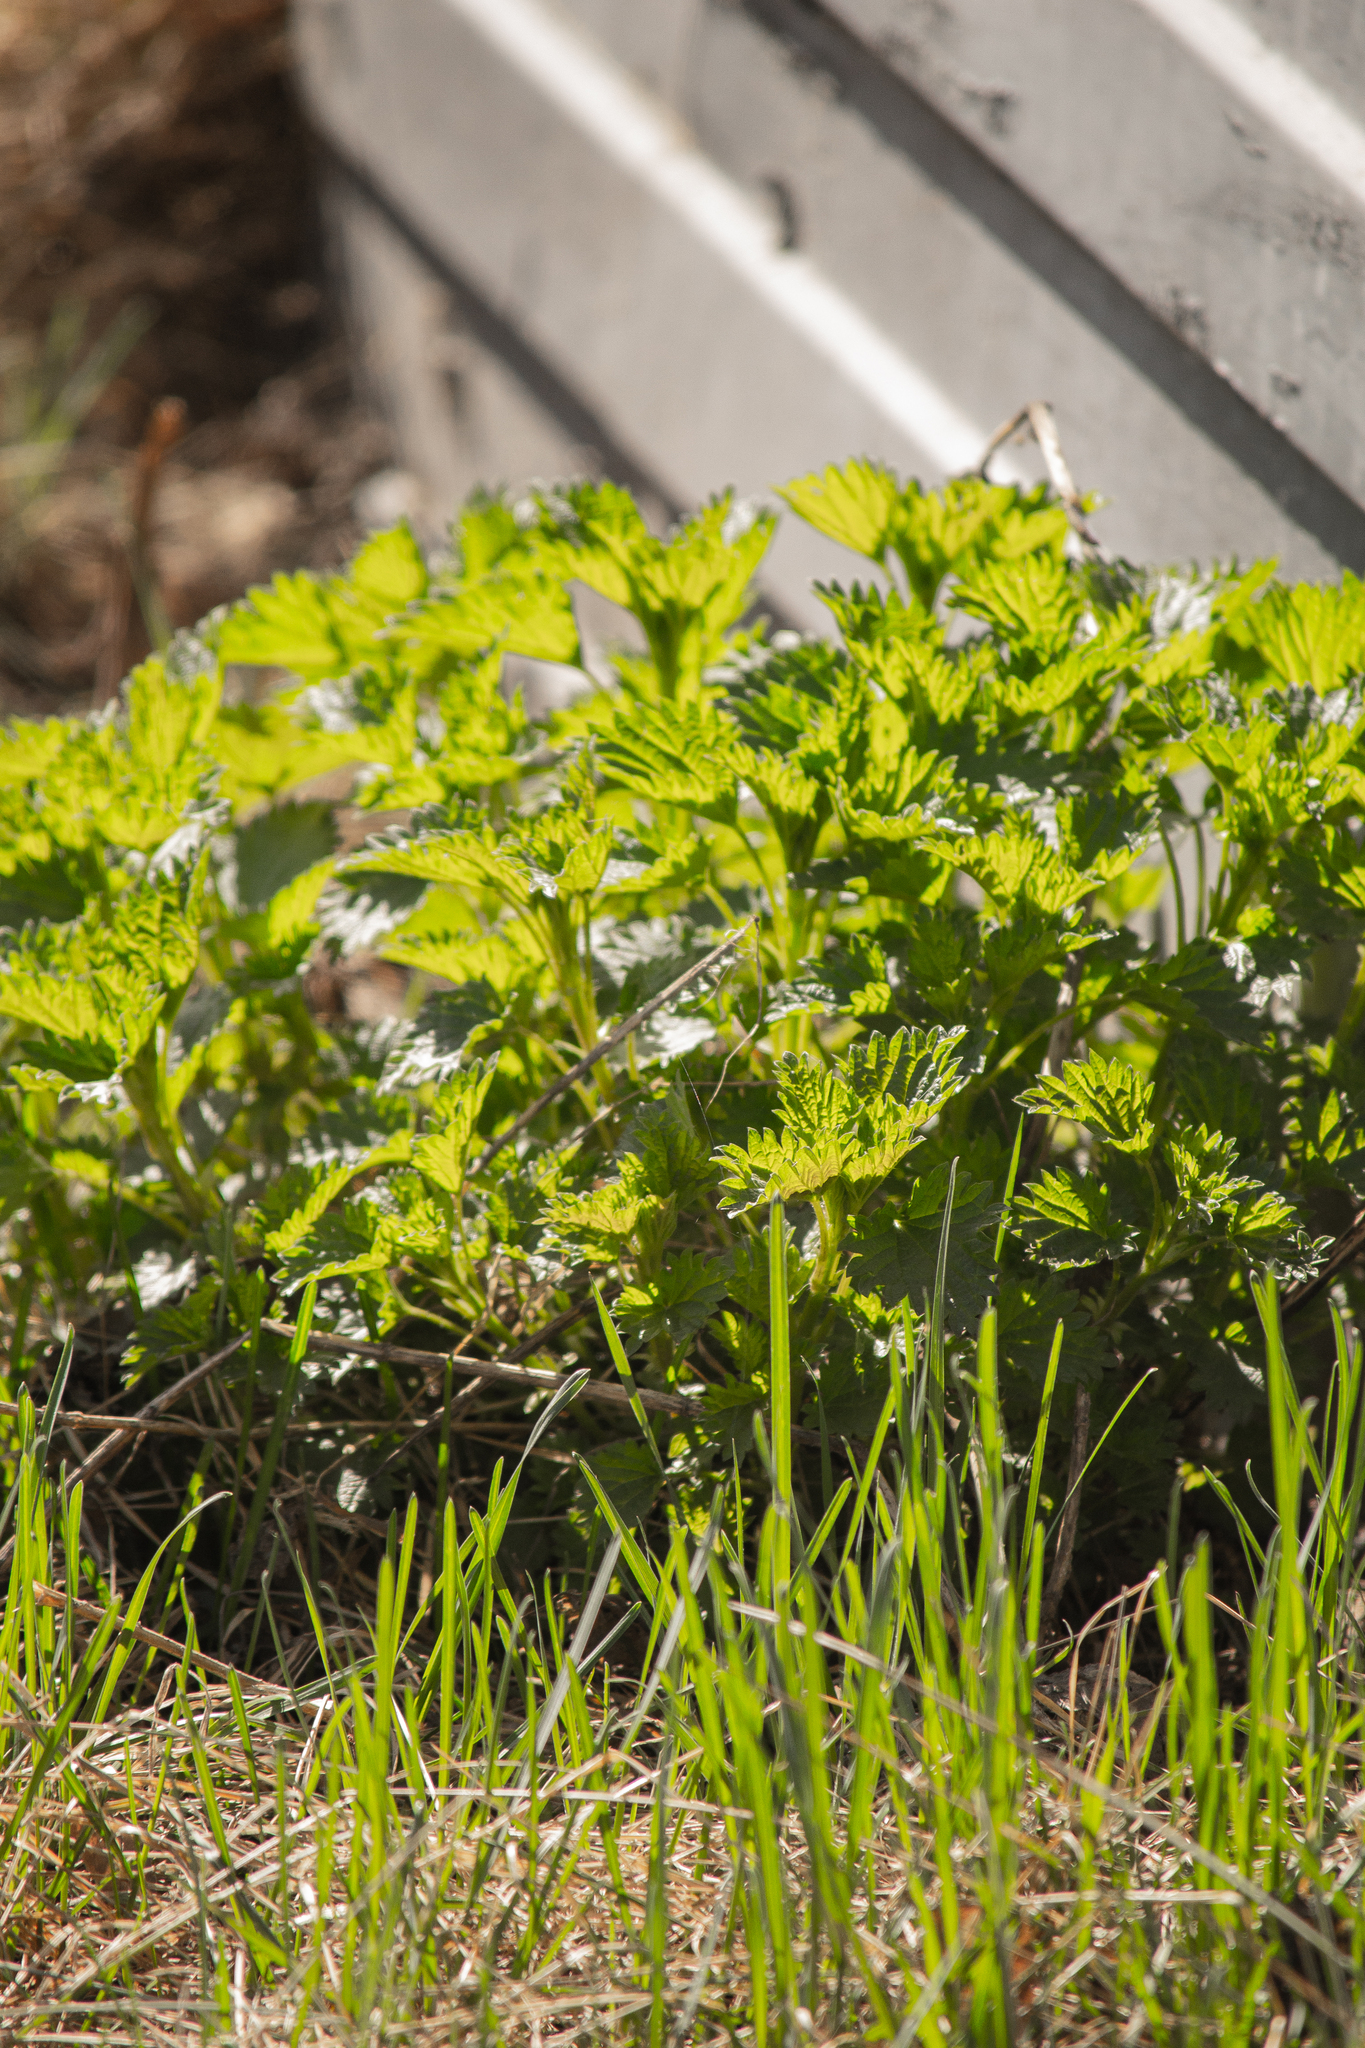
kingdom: Plantae
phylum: Tracheophyta
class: Magnoliopsida
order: Rosales
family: Urticaceae
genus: Urtica
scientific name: Urtica dioica
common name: Common nettle
